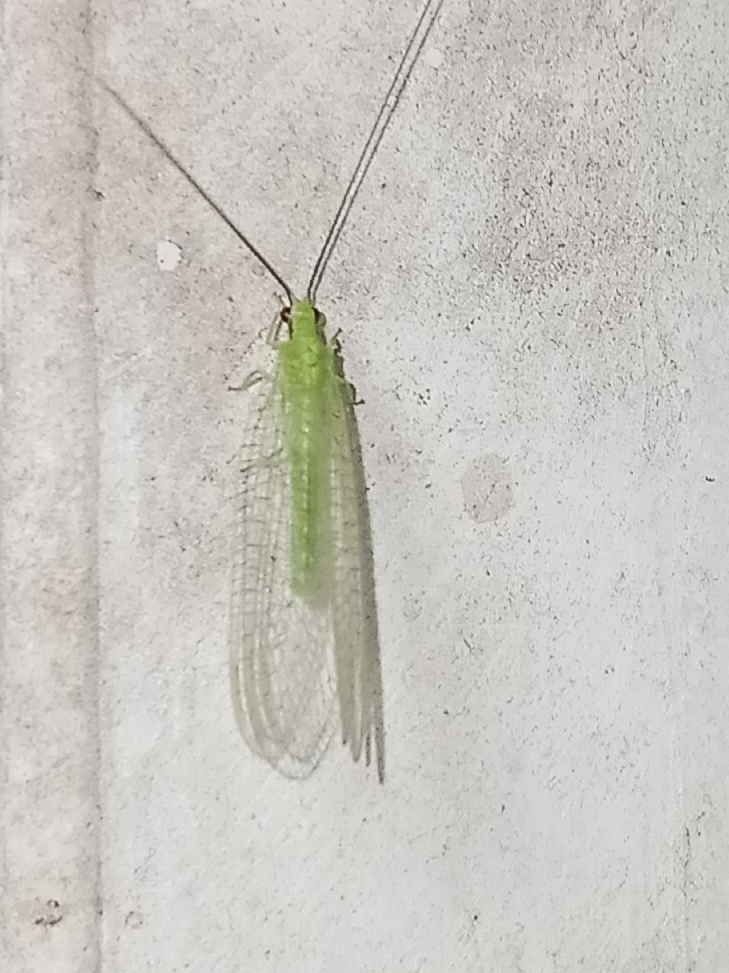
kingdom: Animalia
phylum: Arthropoda
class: Insecta
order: Neuroptera
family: Chrysopidae
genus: Ceraeochrysa
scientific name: Ceraeochrysa lineaticornis
